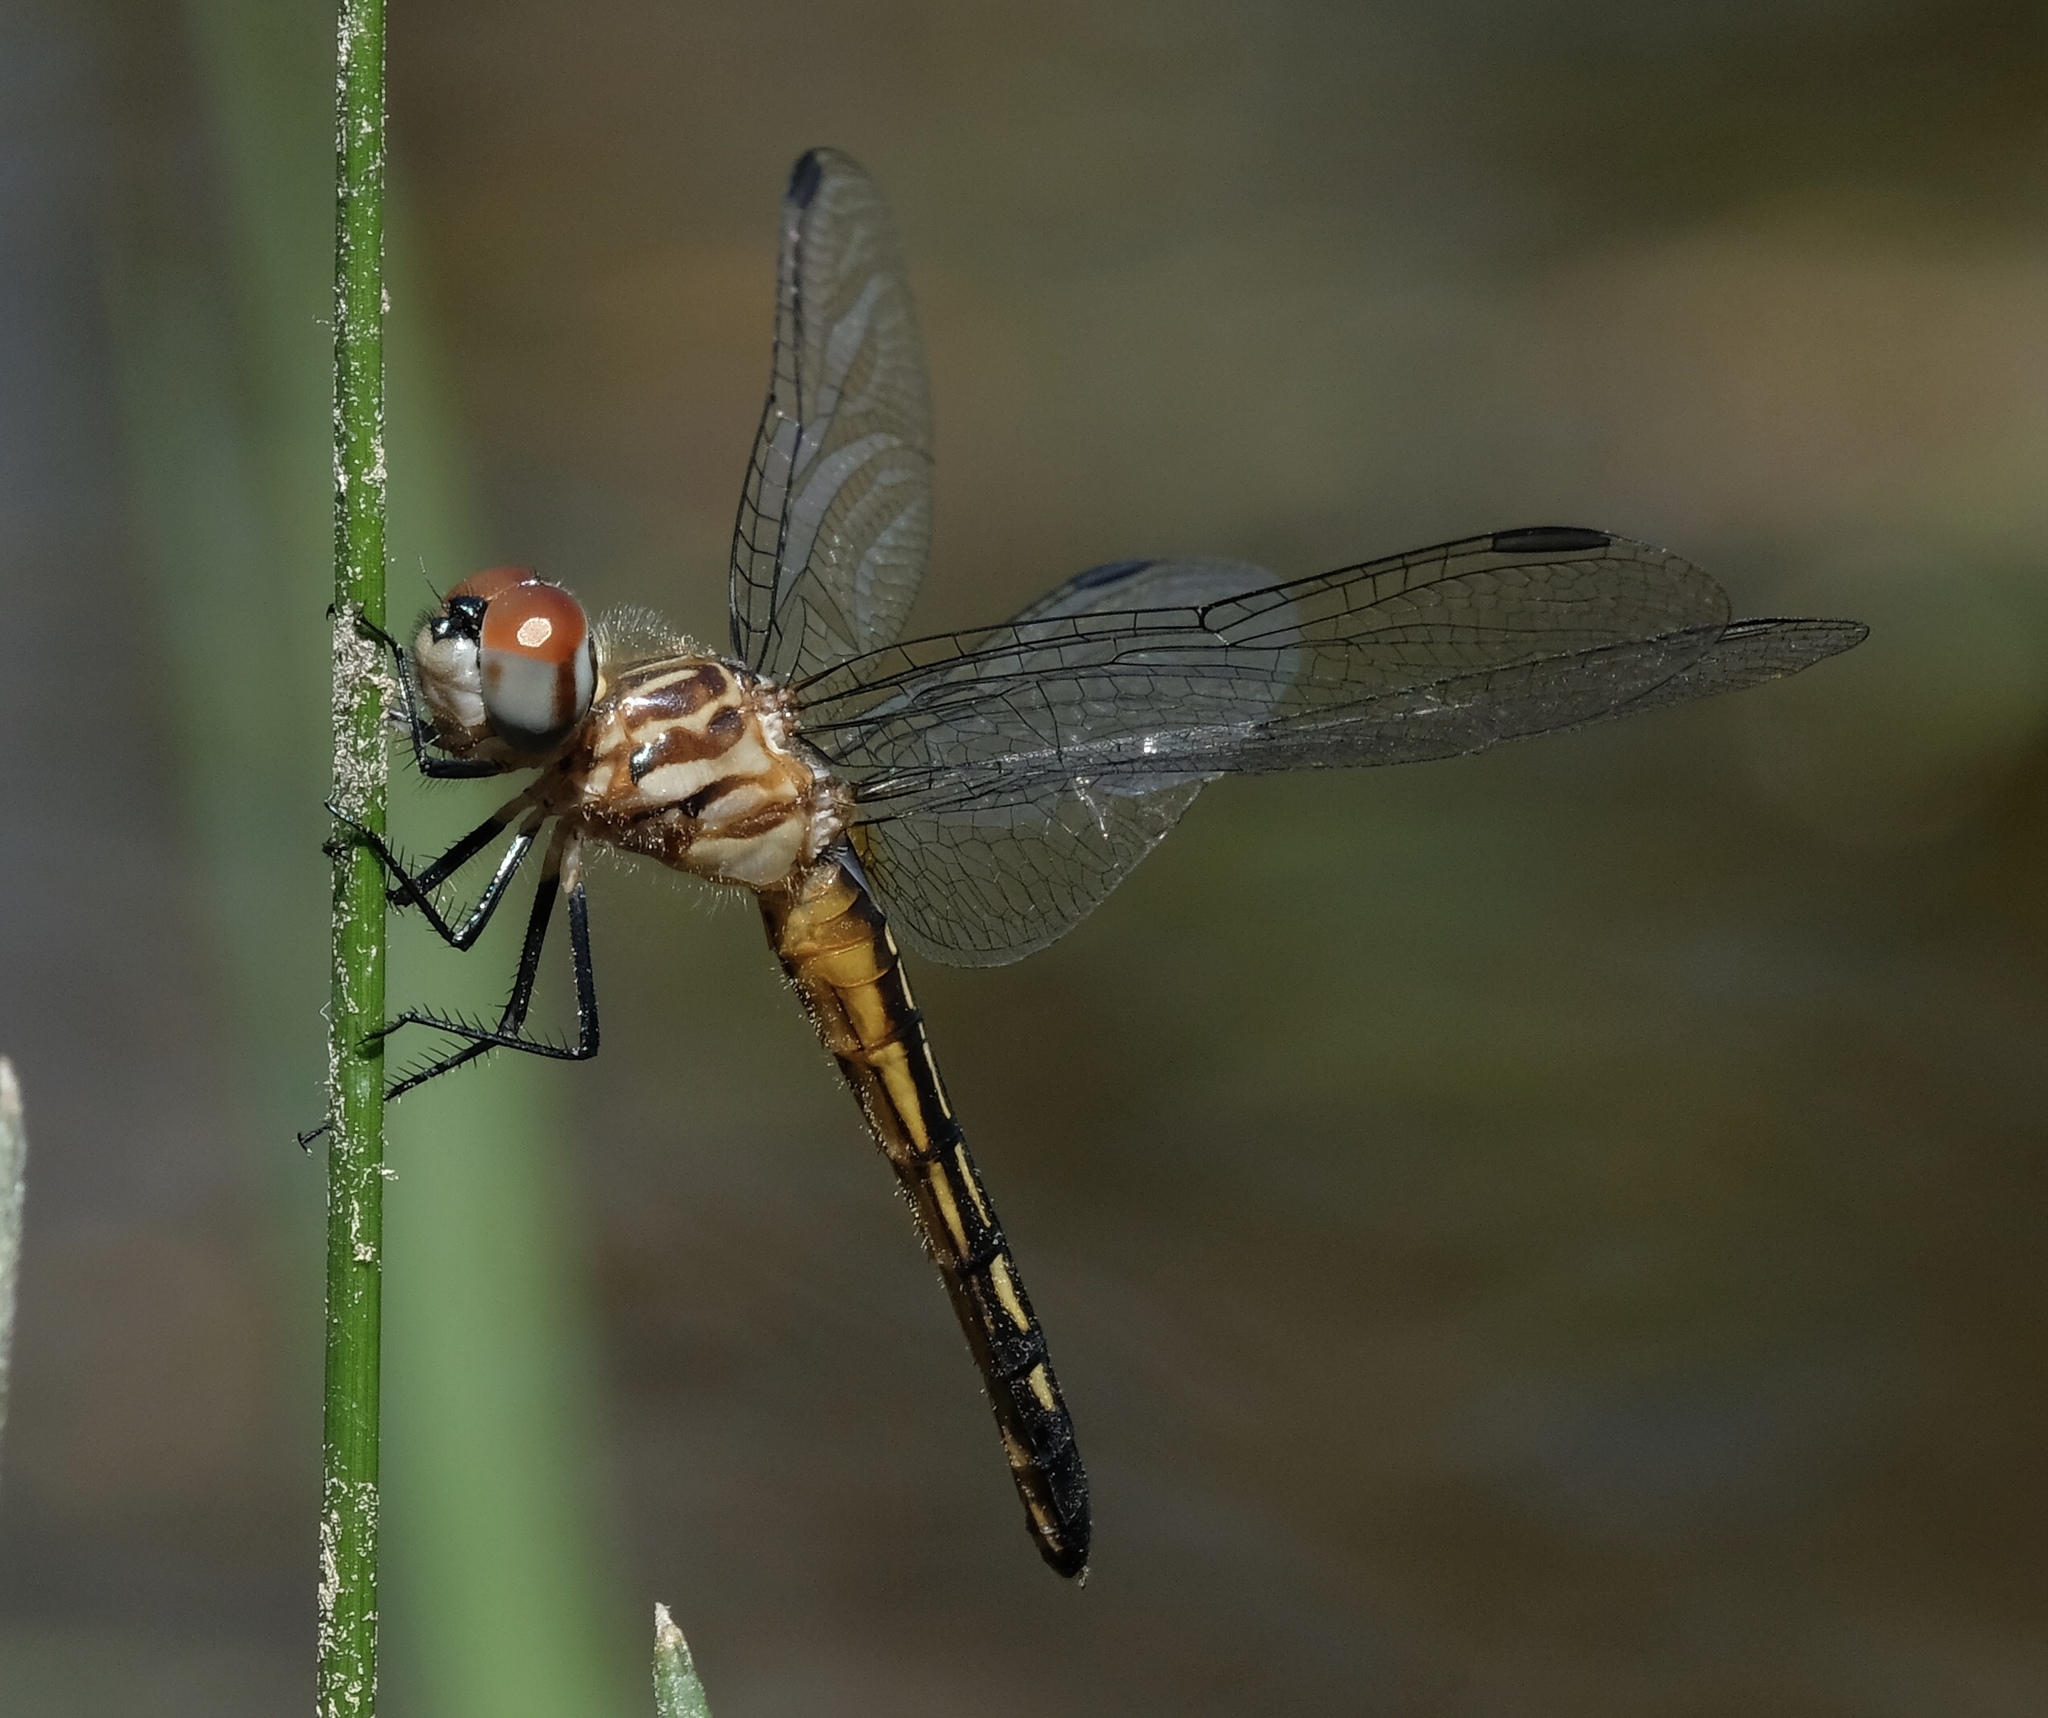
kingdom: Animalia
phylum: Arthropoda
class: Insecta
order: Odonata
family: Libellulidae
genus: Pachydiplax
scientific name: Pachydiplax longipennis
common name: Blue dasher
